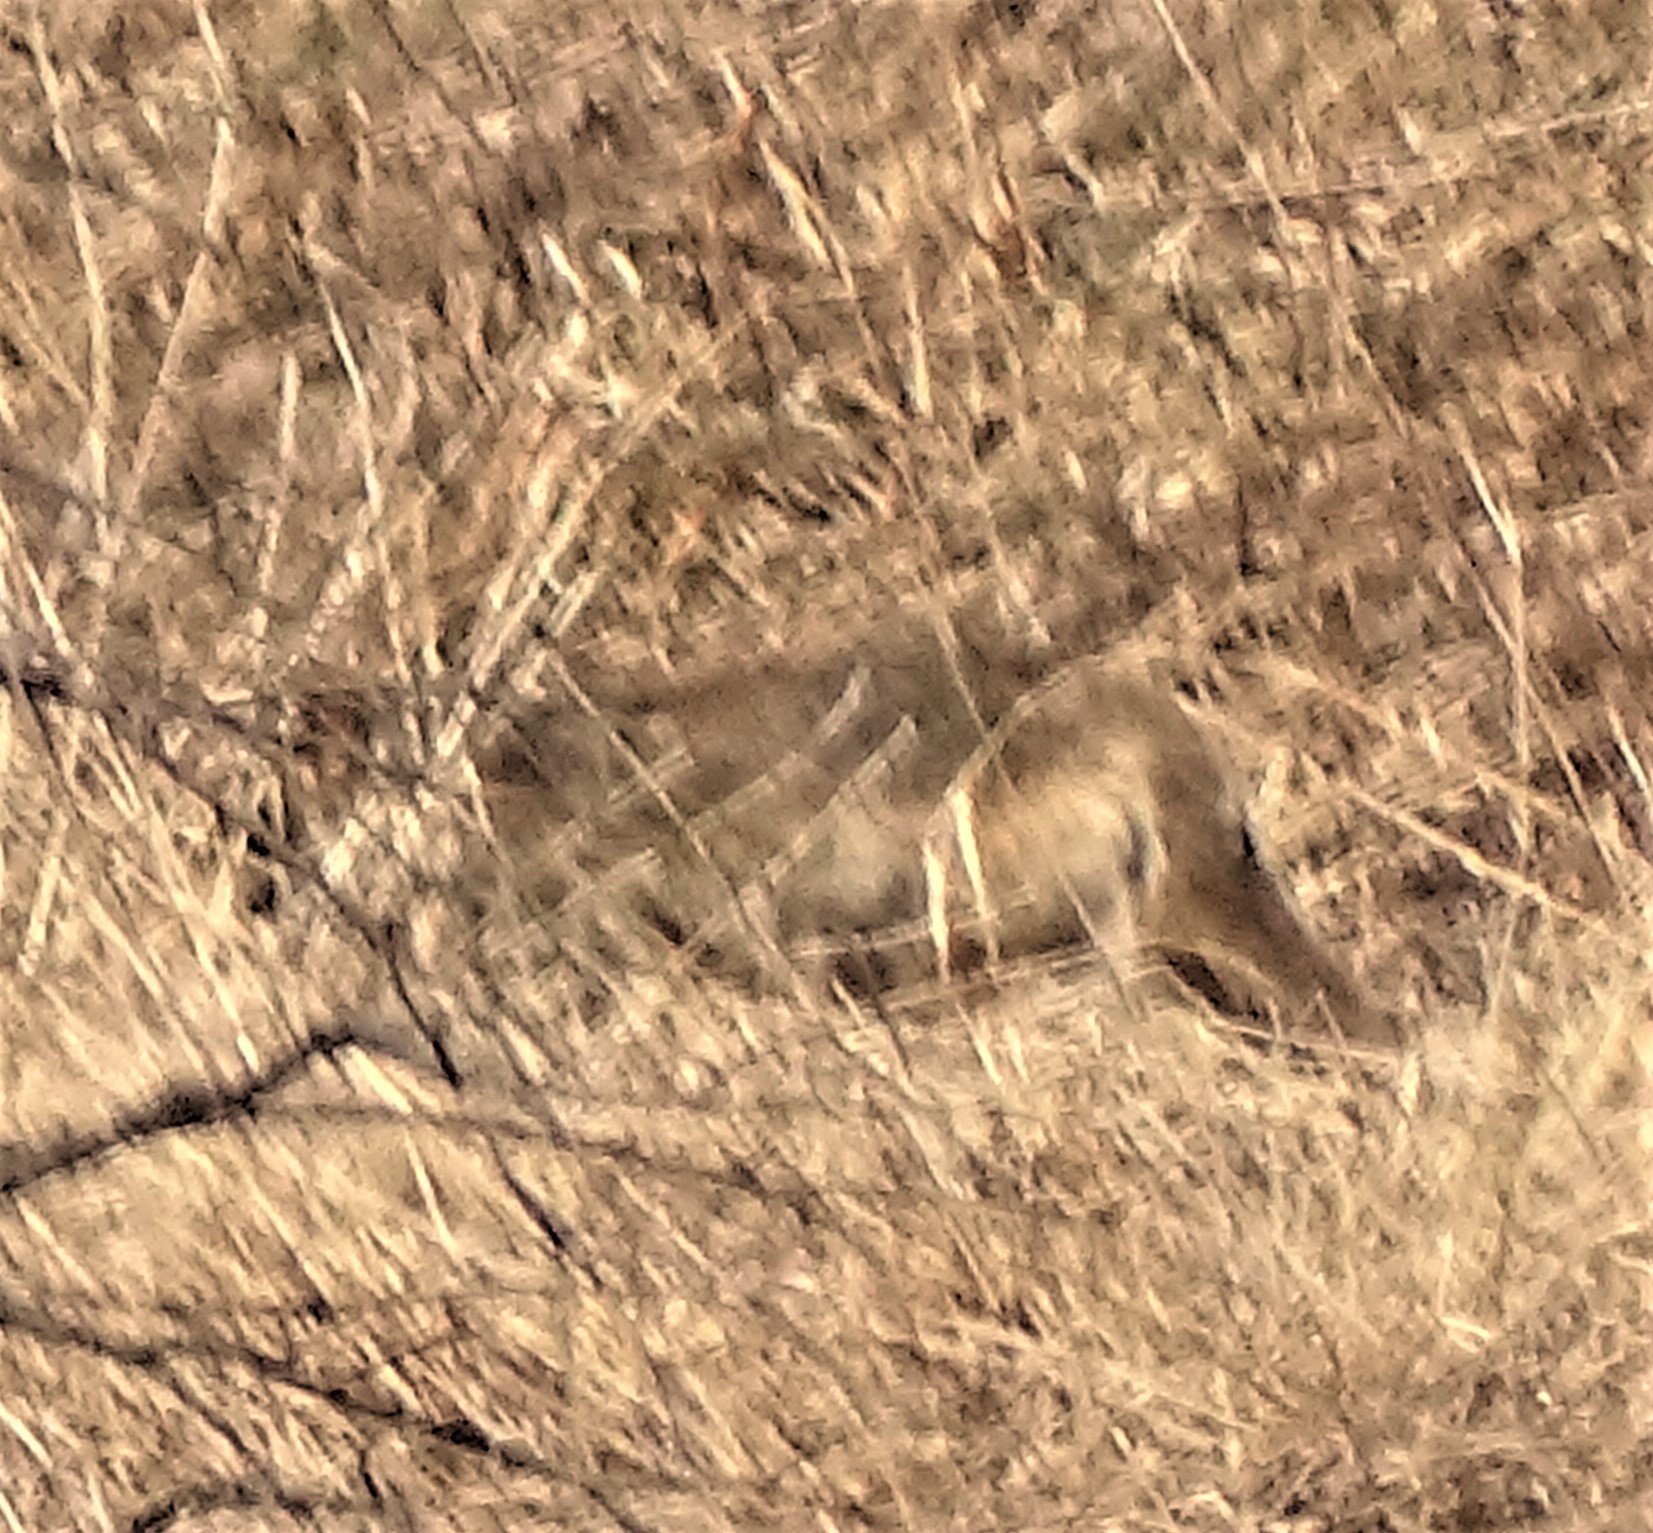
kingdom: Animalia
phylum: Chordata
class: Mammalia
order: Carnivora
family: Canidae
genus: Canis
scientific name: Canis latrans
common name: Coyote
